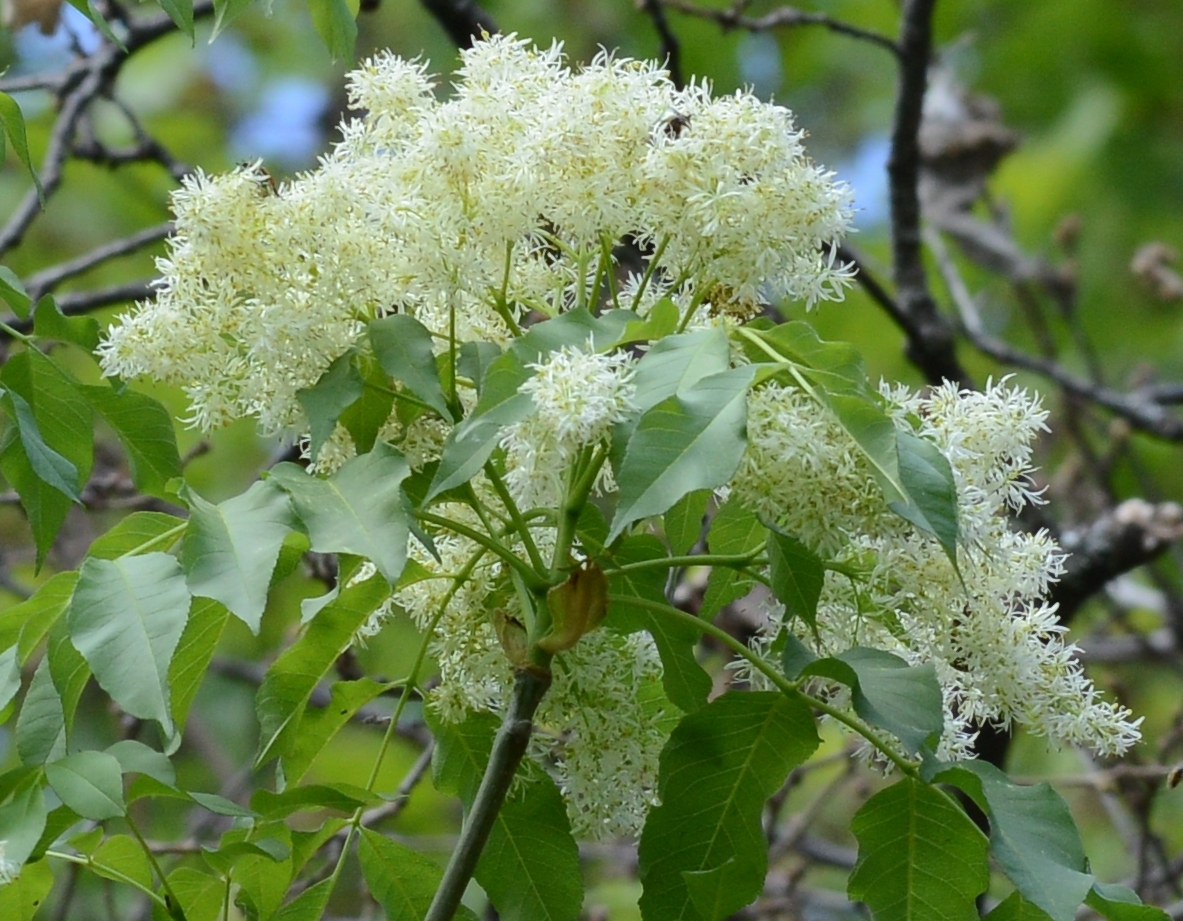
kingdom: Plantae
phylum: Tracheophyta
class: Magnoliopsida
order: Lamiales
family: Oleaceae
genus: Fraxinus
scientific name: Fraxinus ornus
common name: Manna ash
